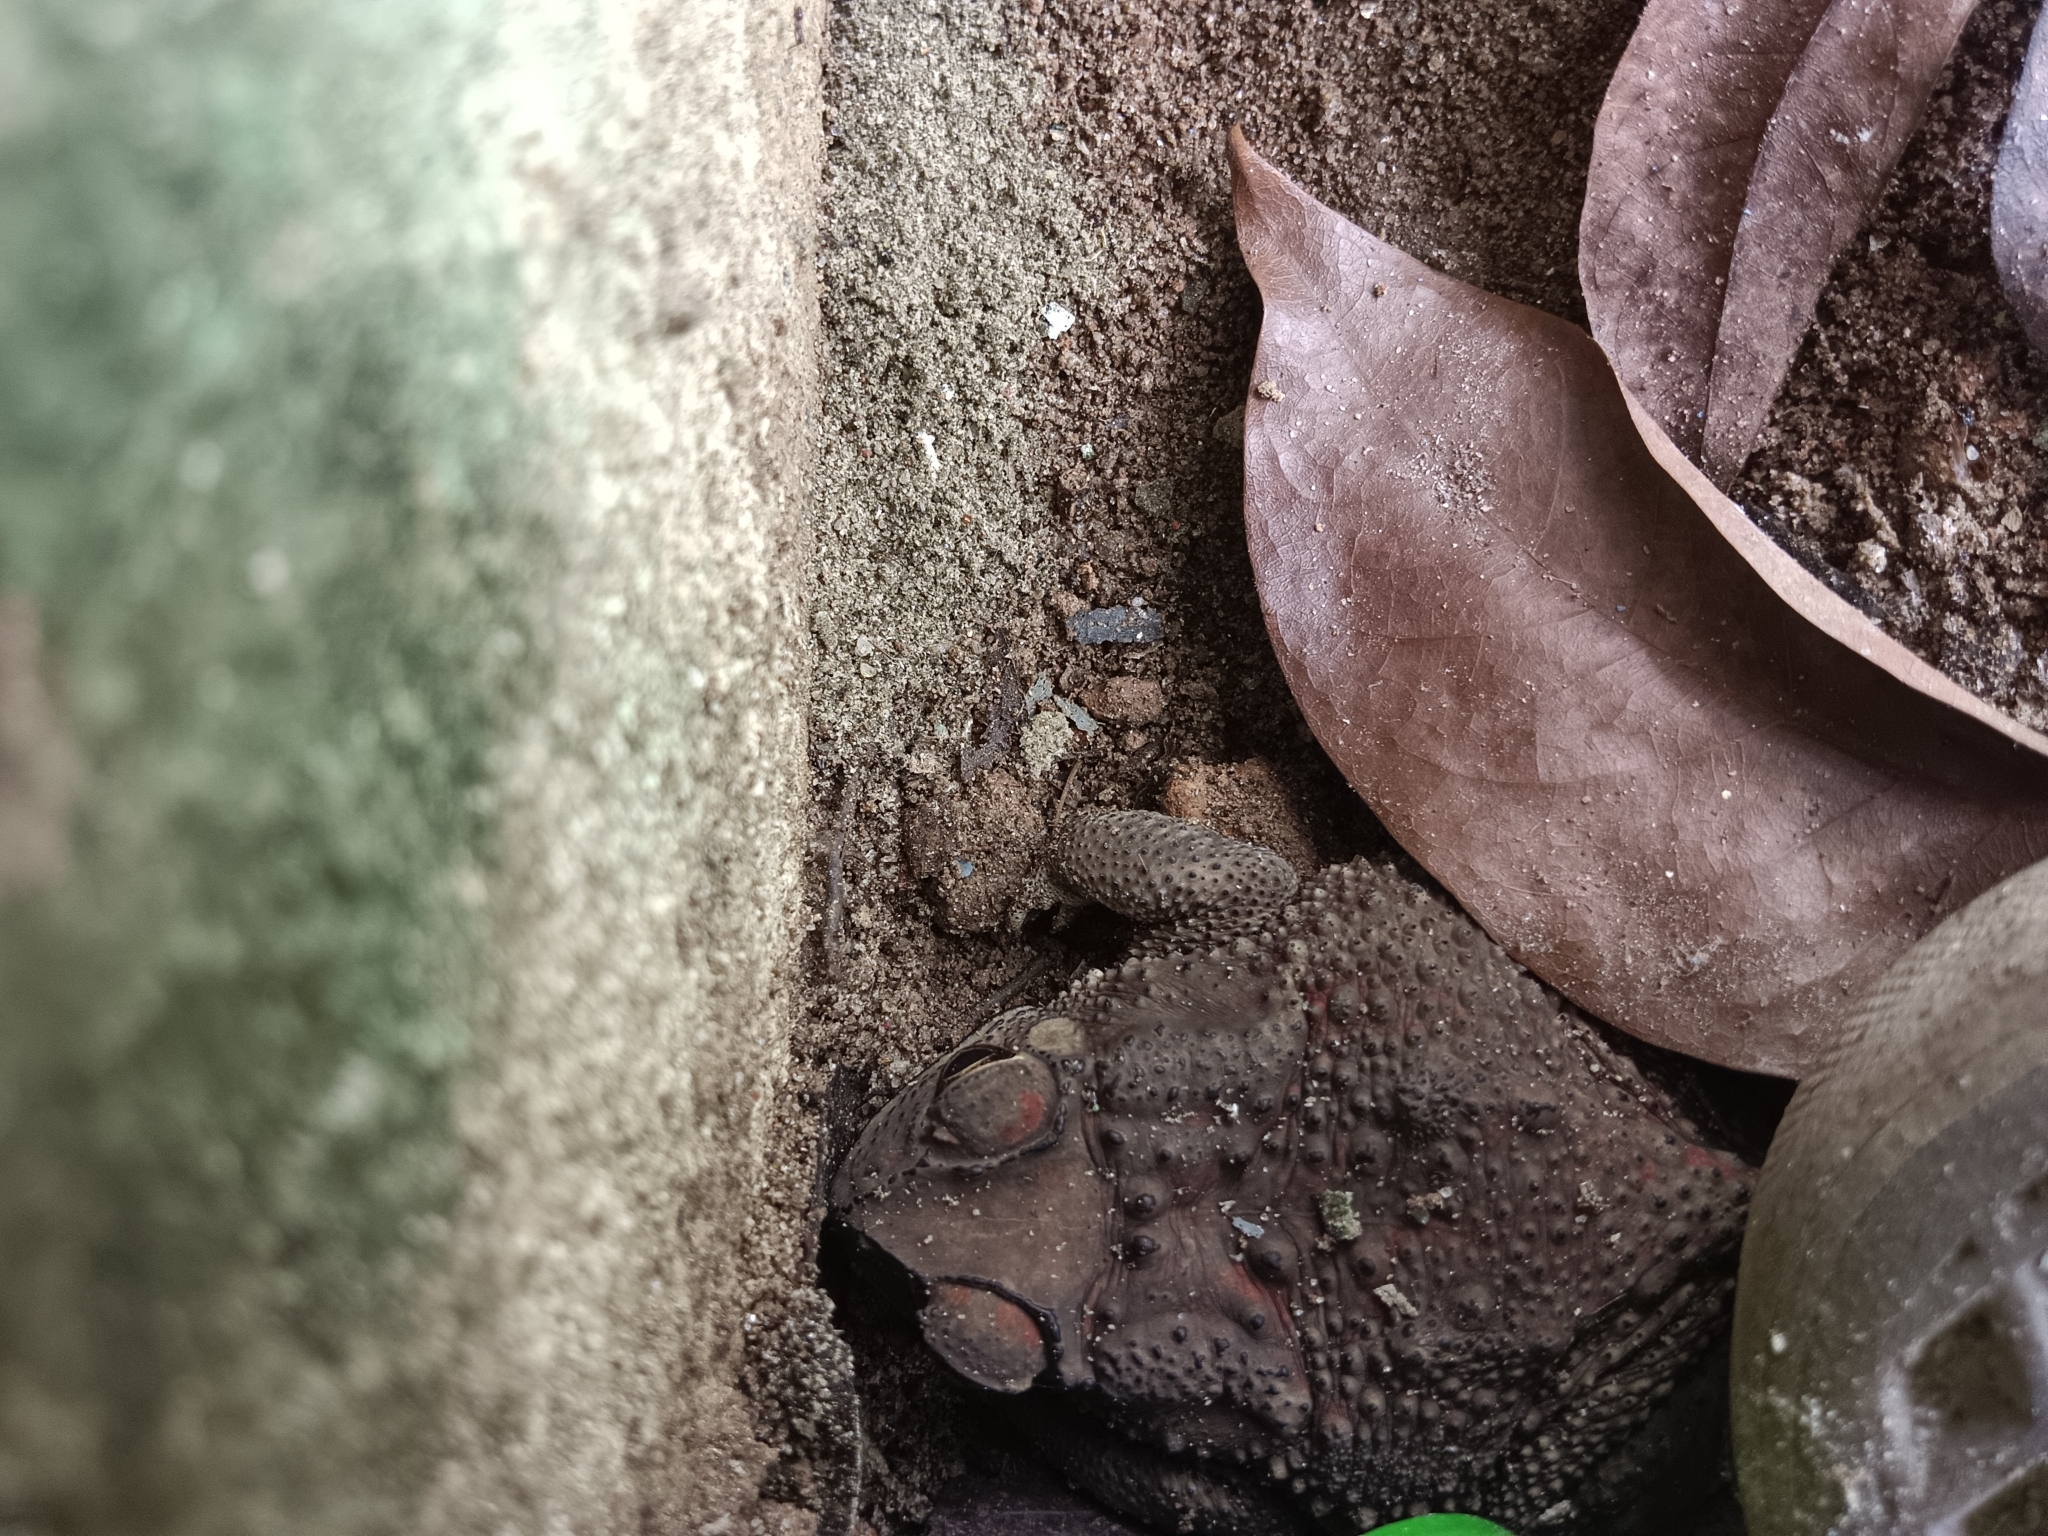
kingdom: Animalia
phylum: Chordata
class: Amphibia
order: Anura
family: Bufonidae
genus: Duttaphrynus
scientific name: Duttaphrynus melanostictus
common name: Common sunda toad
